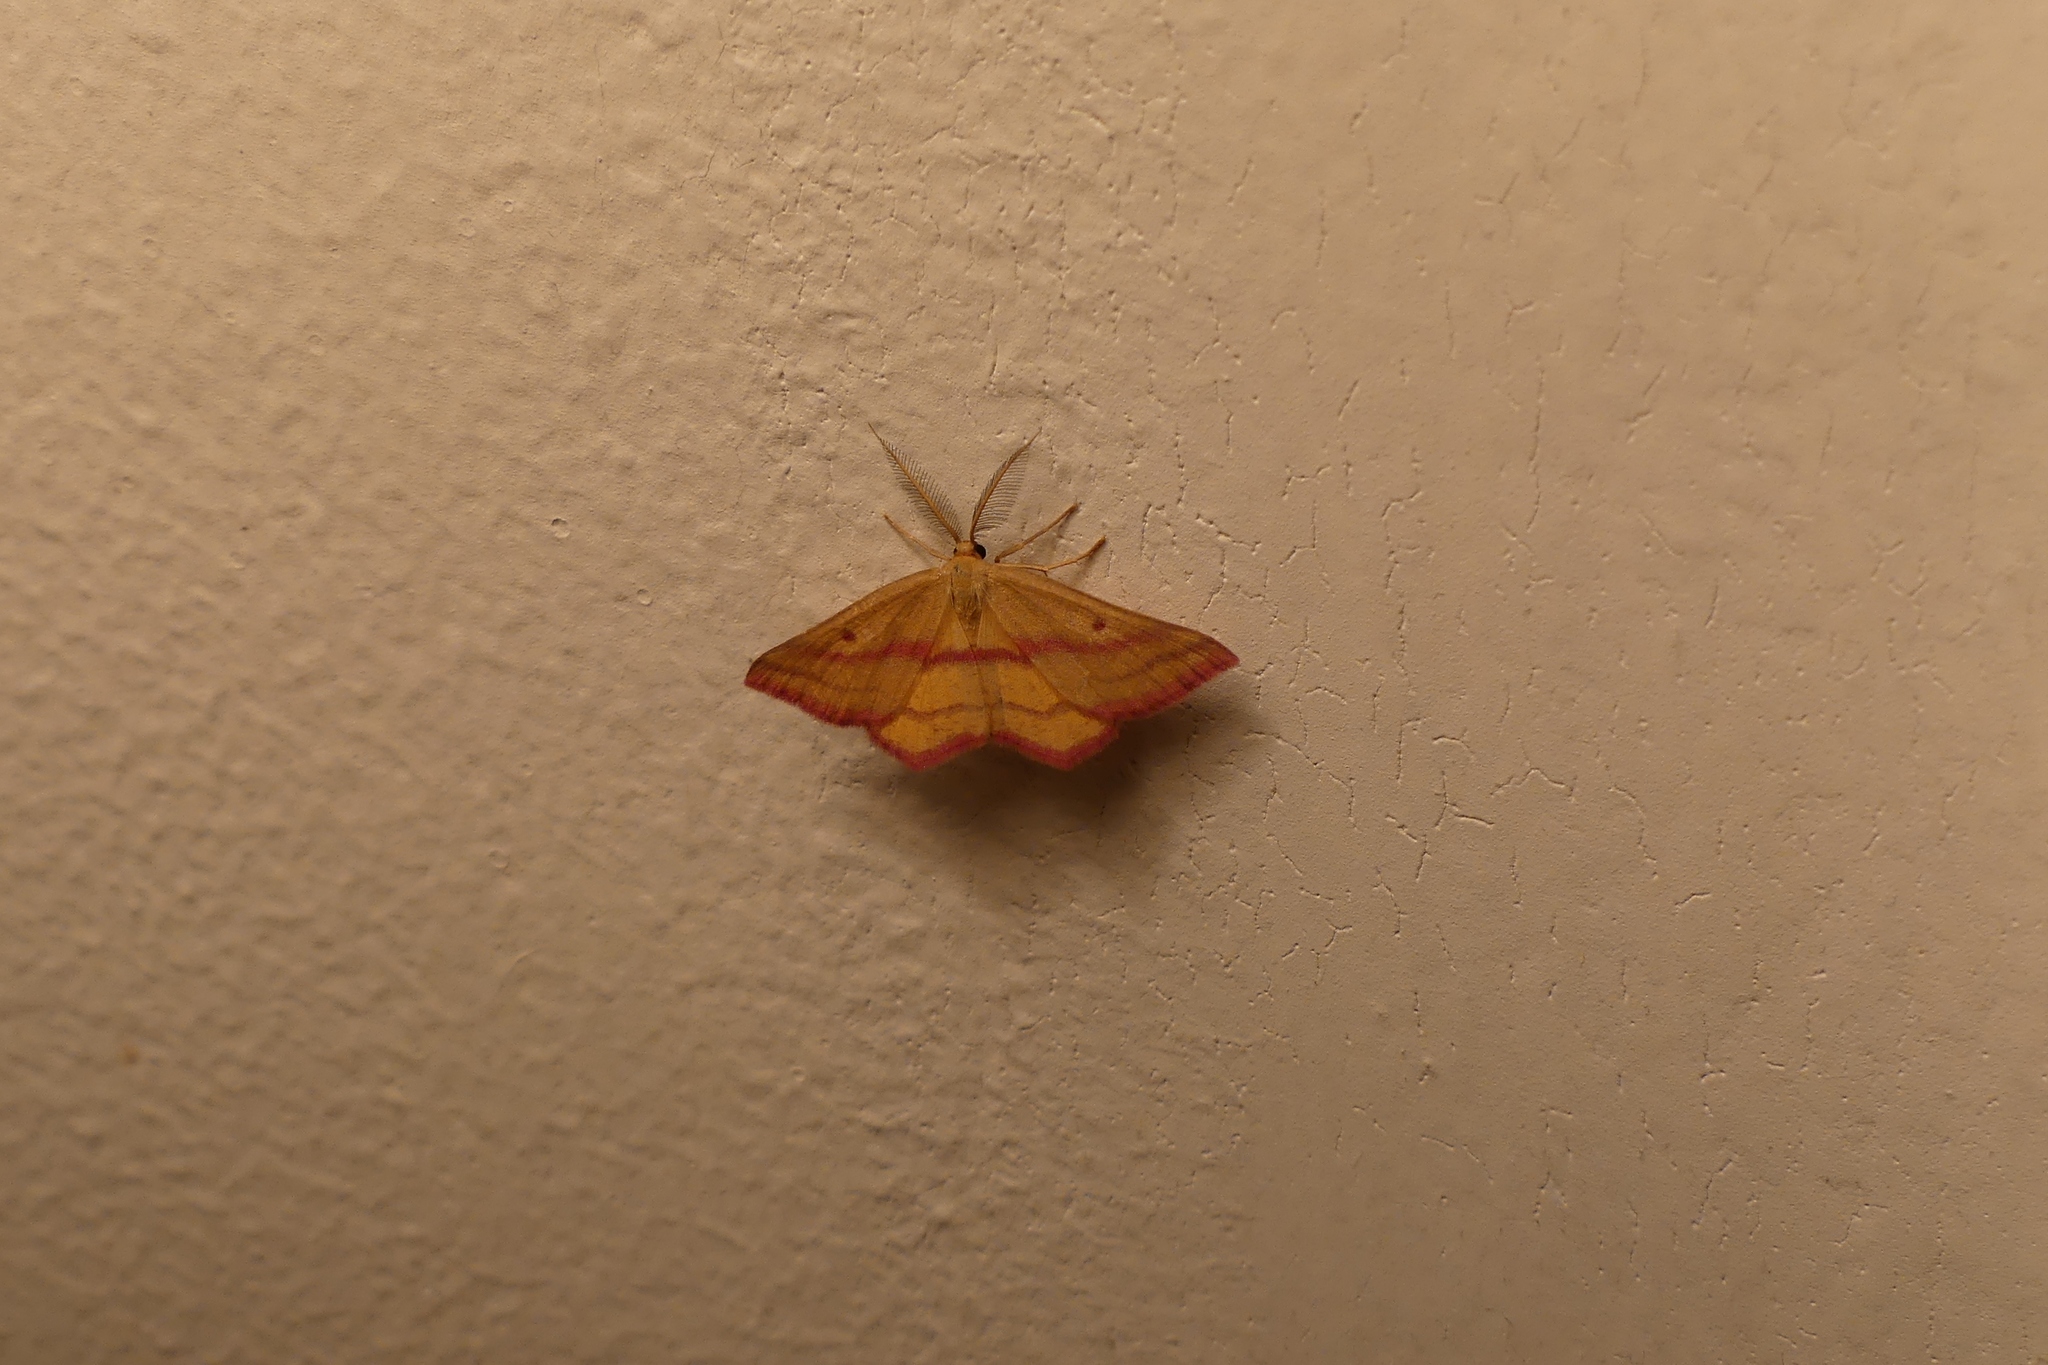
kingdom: Animalia
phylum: Arthropoda
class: Insecta
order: Lepidoptera
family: Geometridae
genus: Haematopis
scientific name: Haematopis grataria
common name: Chickweed geometer
